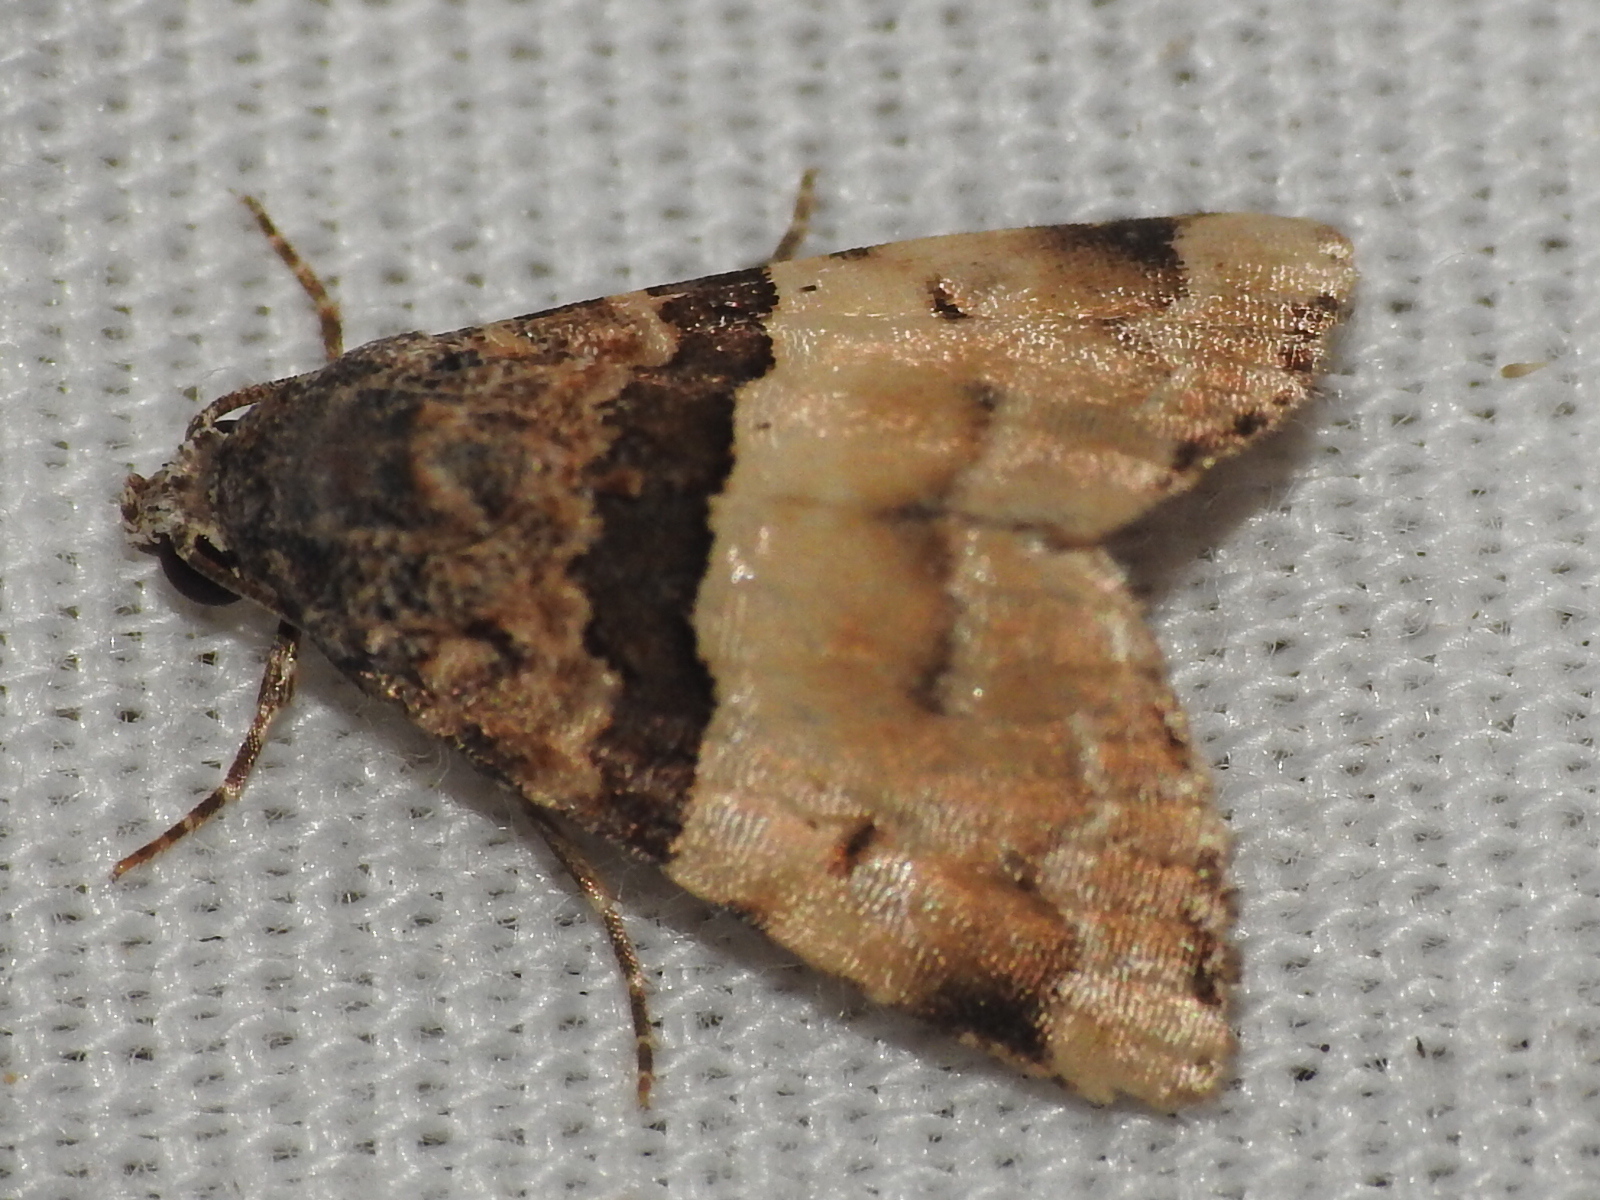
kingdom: Animalia
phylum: Arthropoda
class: Insecta
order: Lepidoptera
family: Noctuidae
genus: Cobubatha
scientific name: Cobubatha dividua
